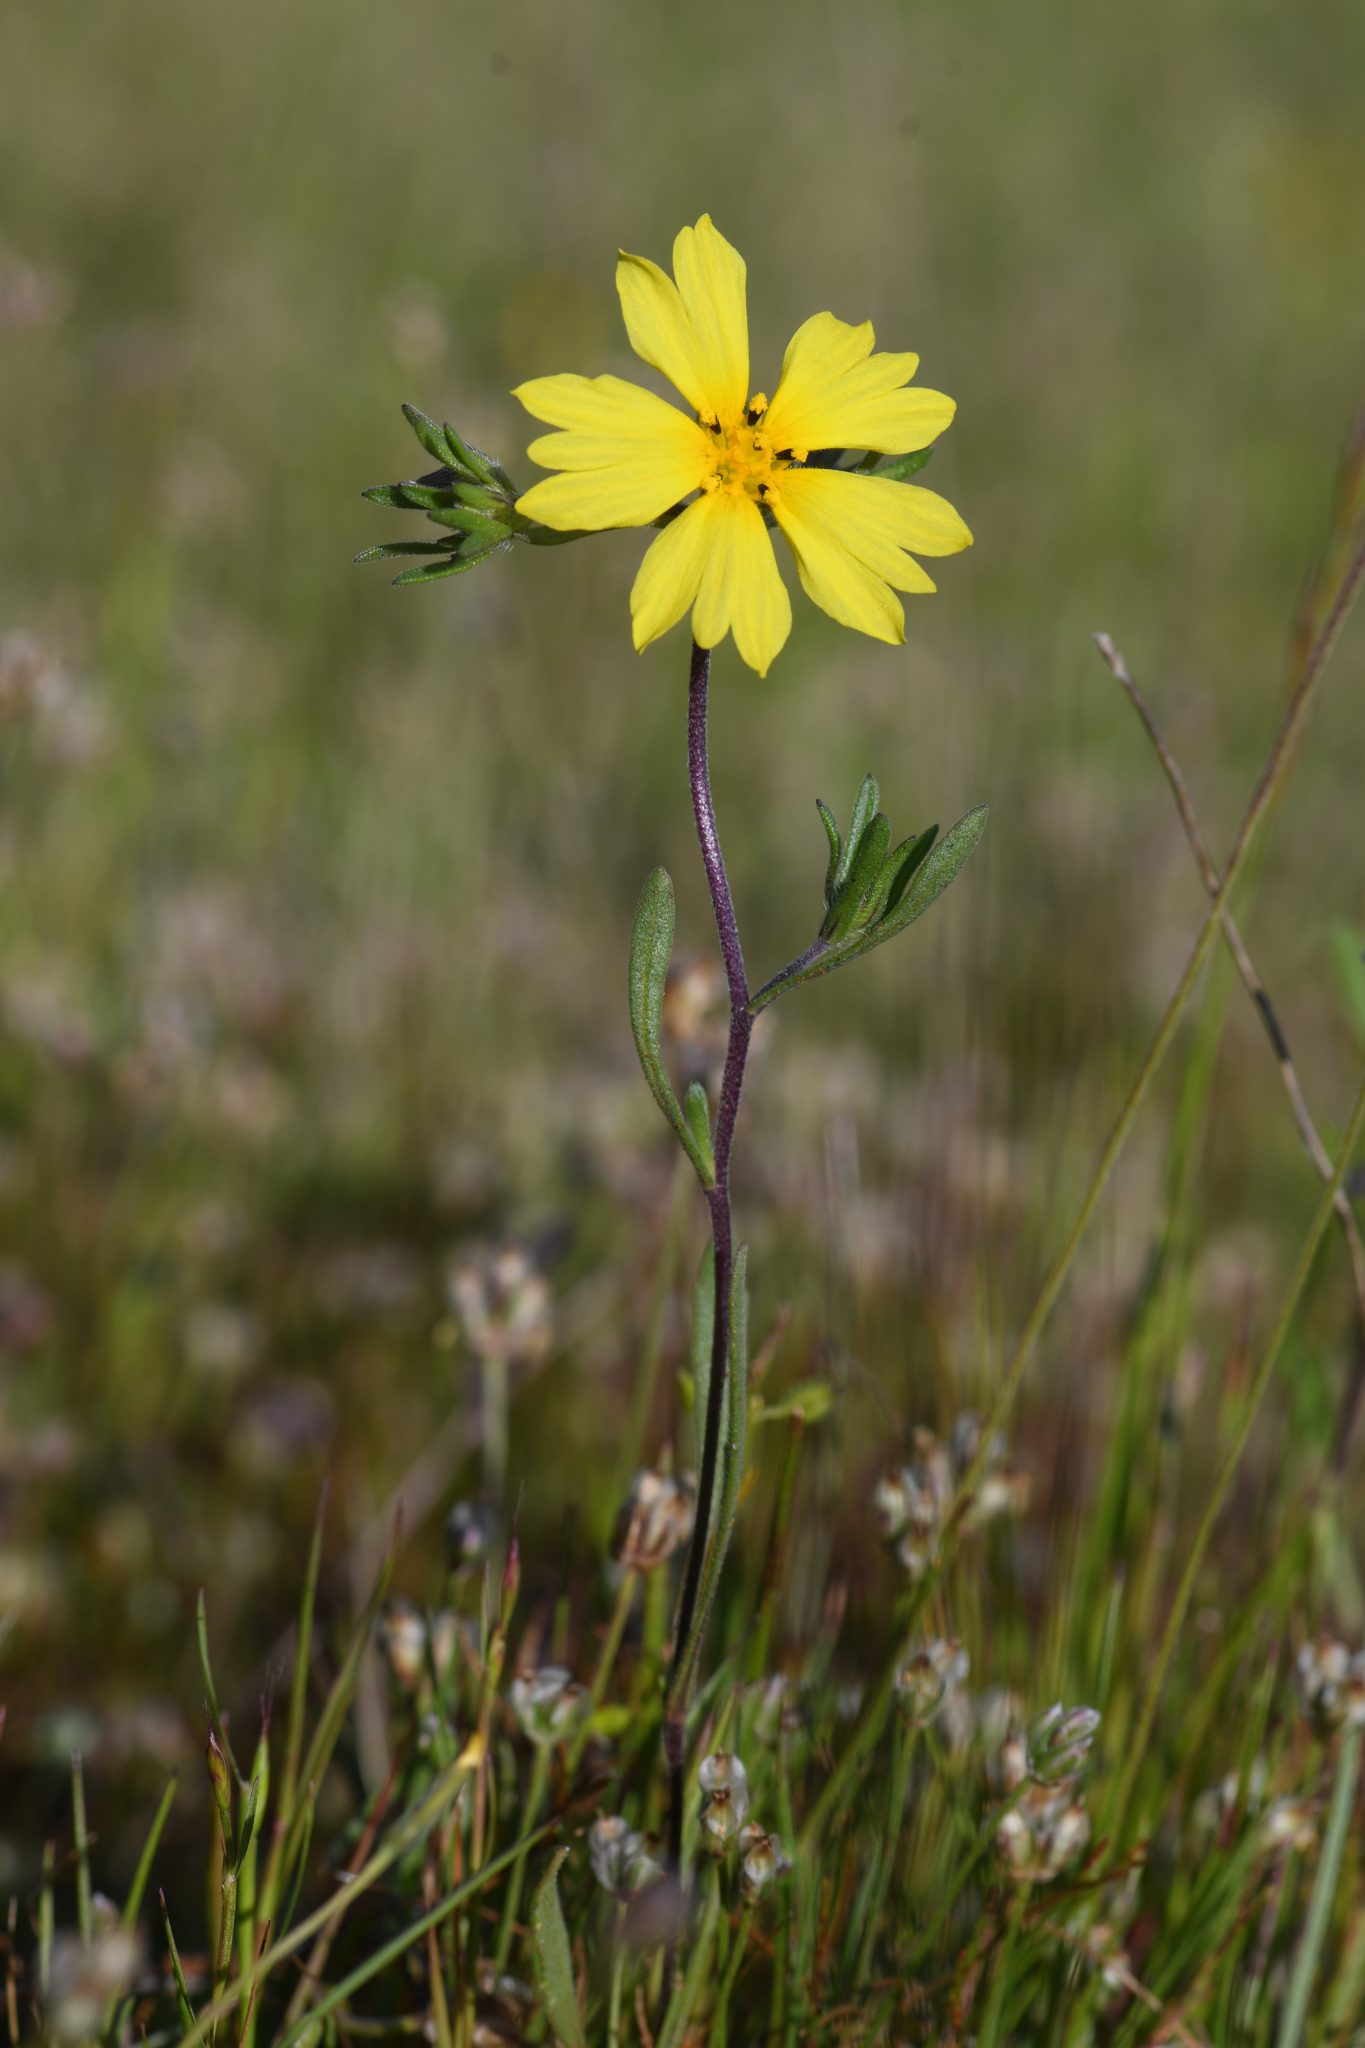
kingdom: Plantae
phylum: Tracheophyta
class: Magnoliopsida
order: Asterales
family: Asteraceae
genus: Lagophylla
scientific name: Lagophylla dichotoma
